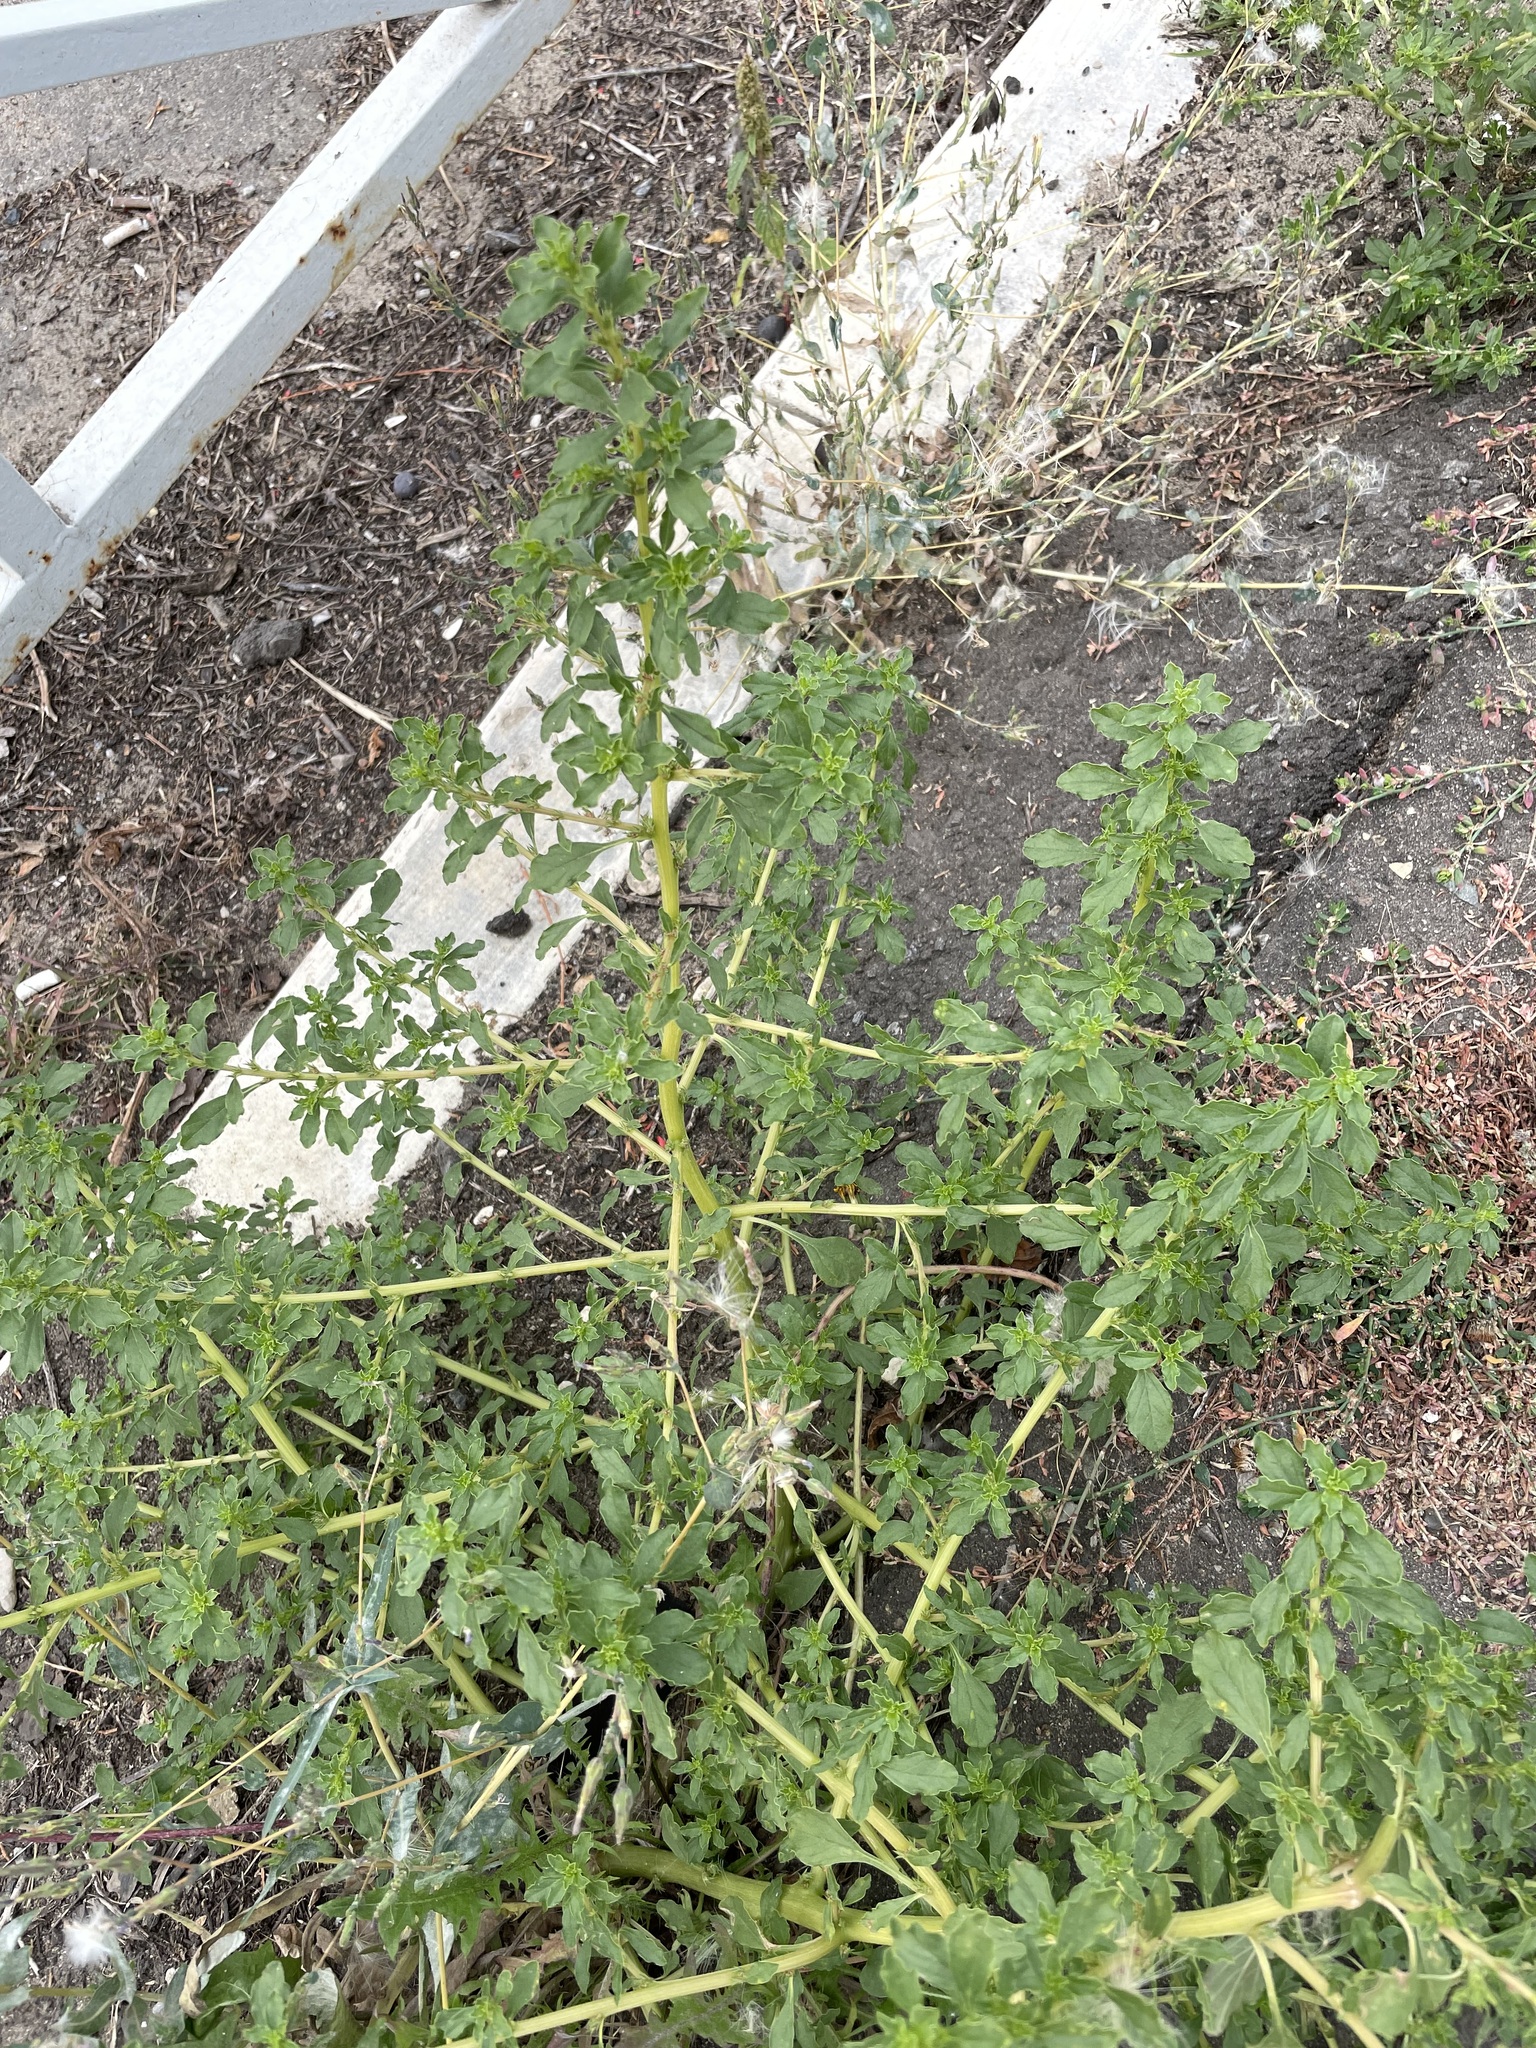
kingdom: Plantae
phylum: Tracheophyta
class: Magnoliopsida
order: Caryophyllales
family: Amaranthaceae
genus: Amaranthus
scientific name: Amaranthus albus
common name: White pigweed
